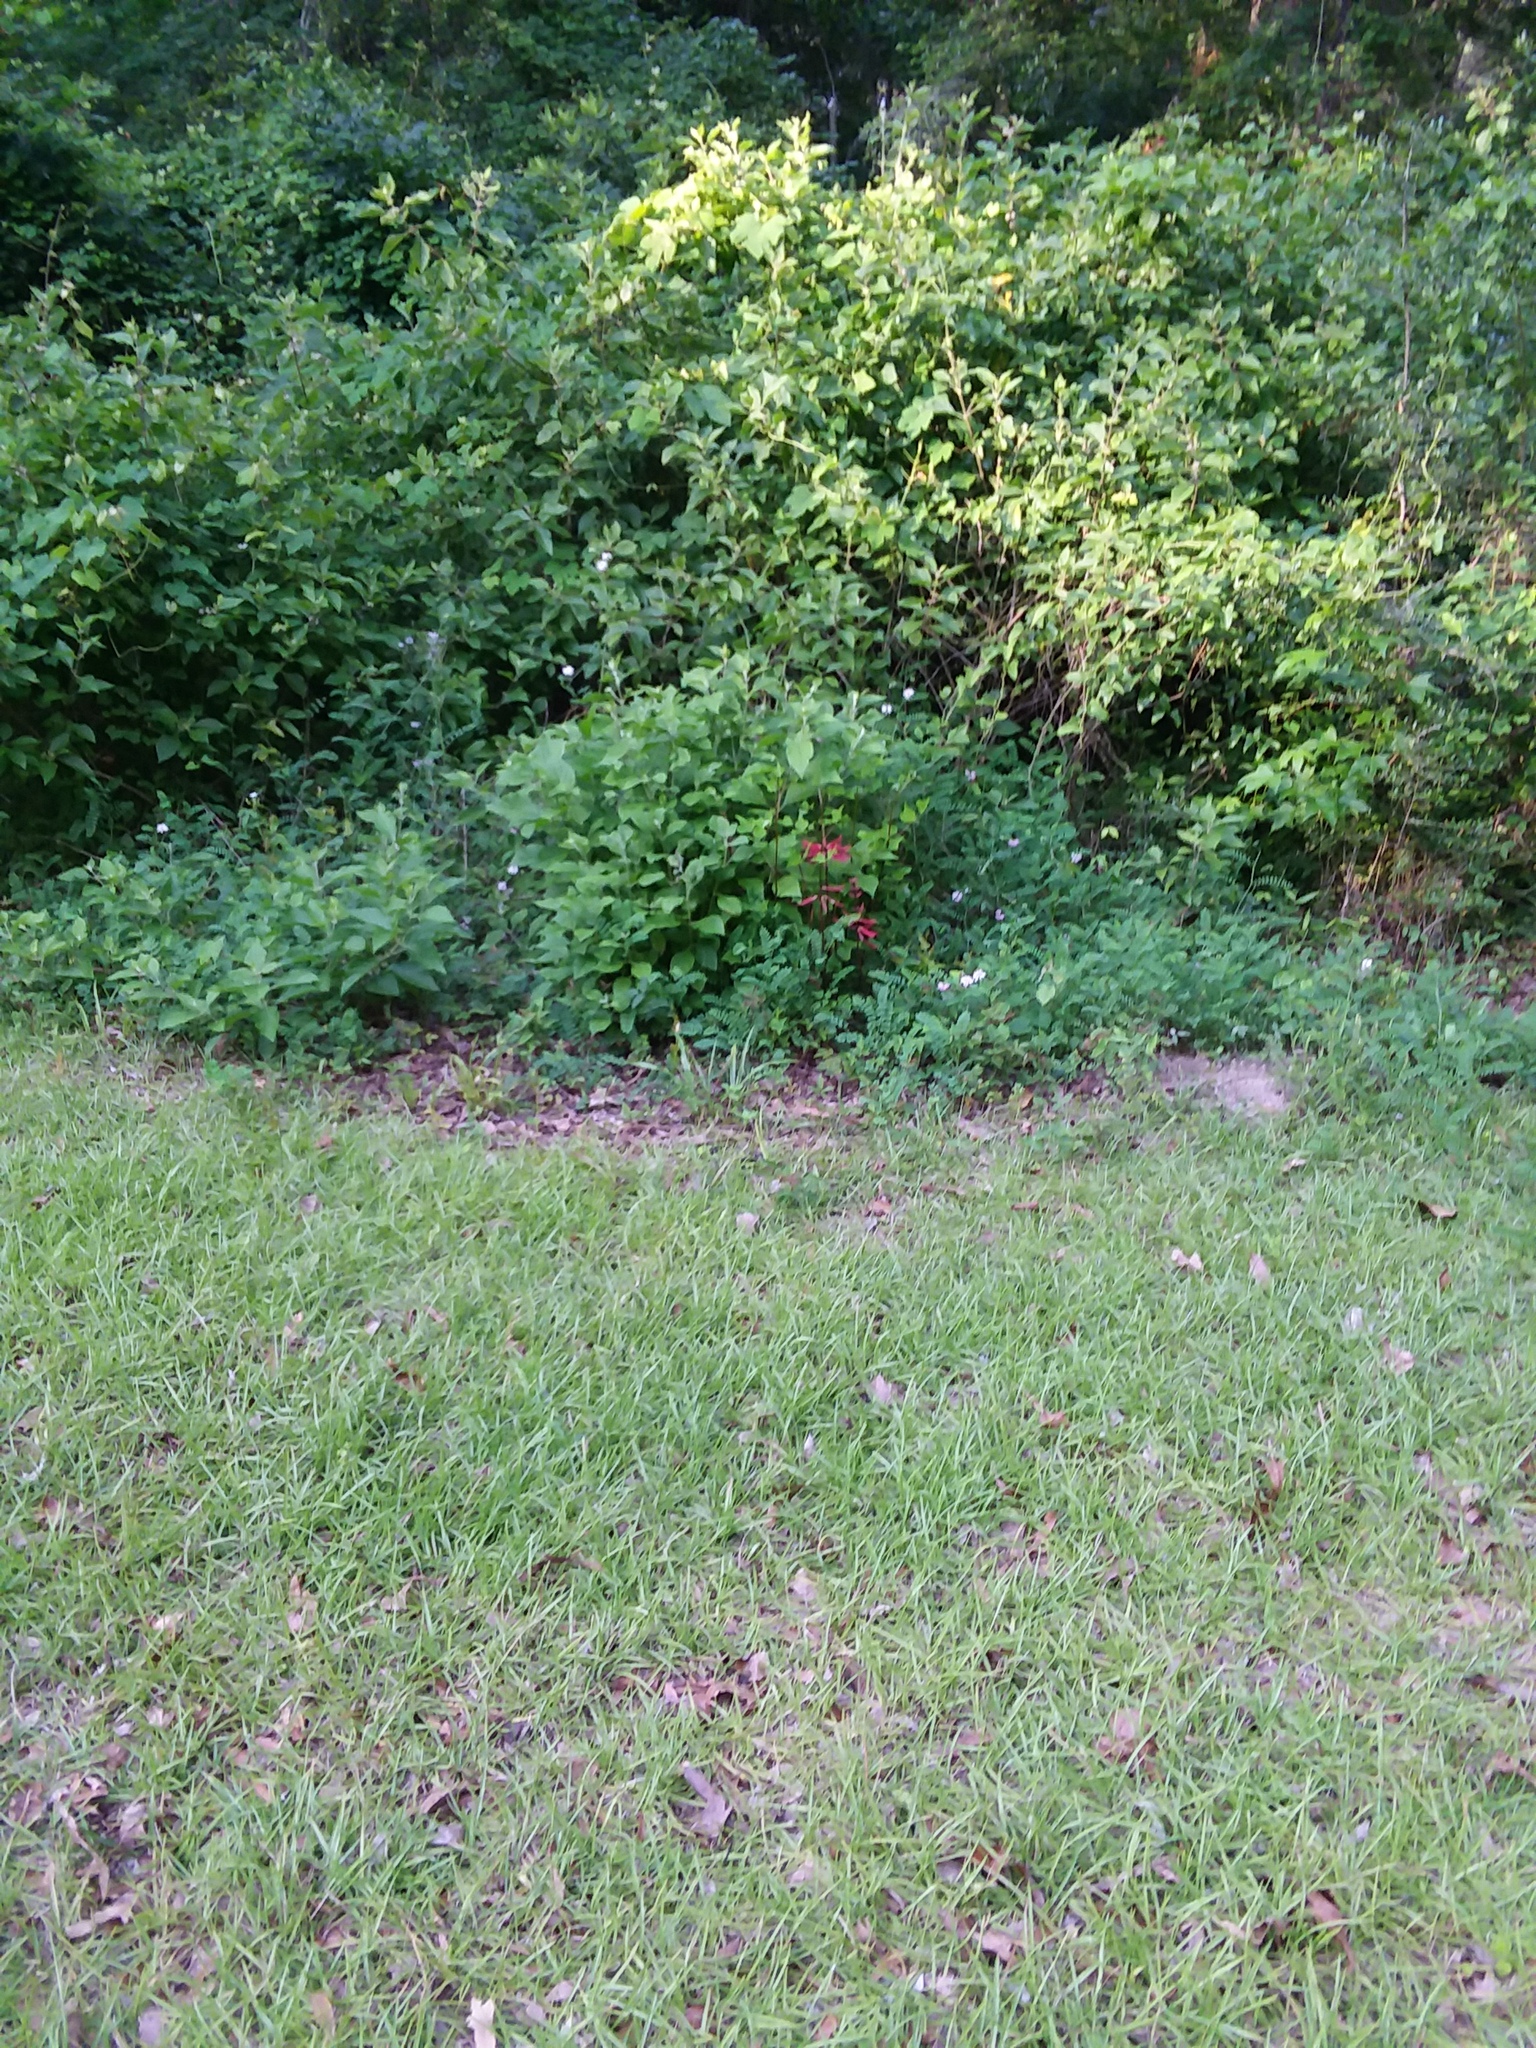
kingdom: Plantae
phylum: Tracheophyta
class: Magnoliopsida
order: Fabales
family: Fabaceae
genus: Erythrina
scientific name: Erythrina herbacea
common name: Coral-bean
